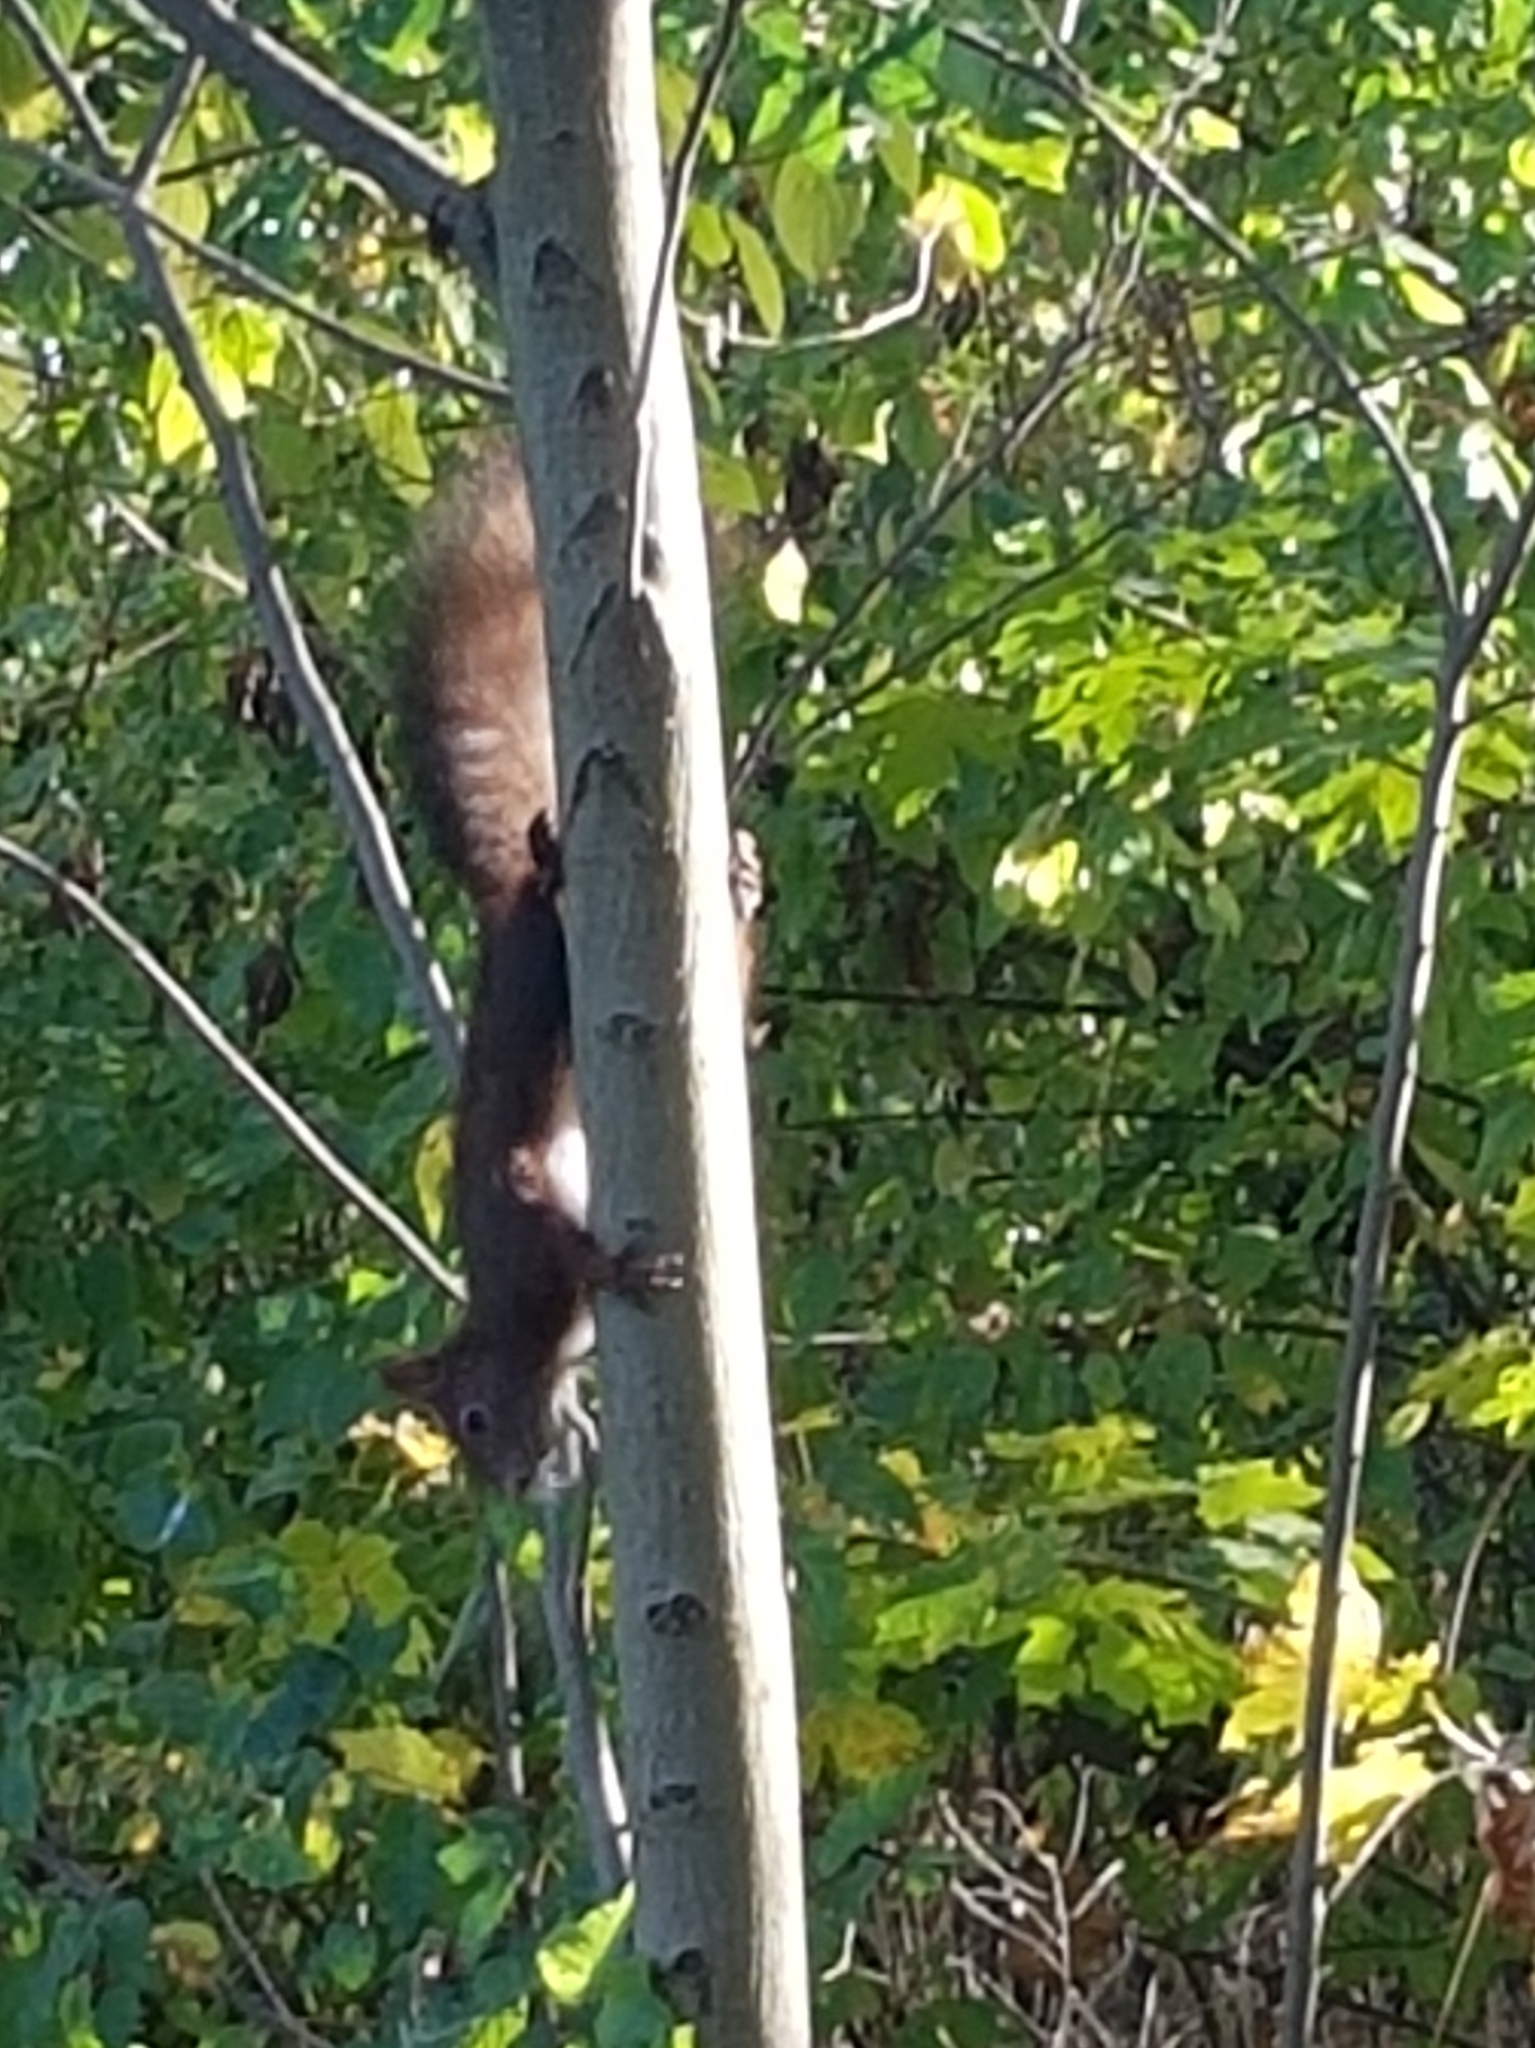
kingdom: Animalia
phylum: Chordata
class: Mammalia
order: Rodentia
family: Sciuridae
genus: Sciurus
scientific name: Sciurus vulgaris
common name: Eurasian red squirrel
